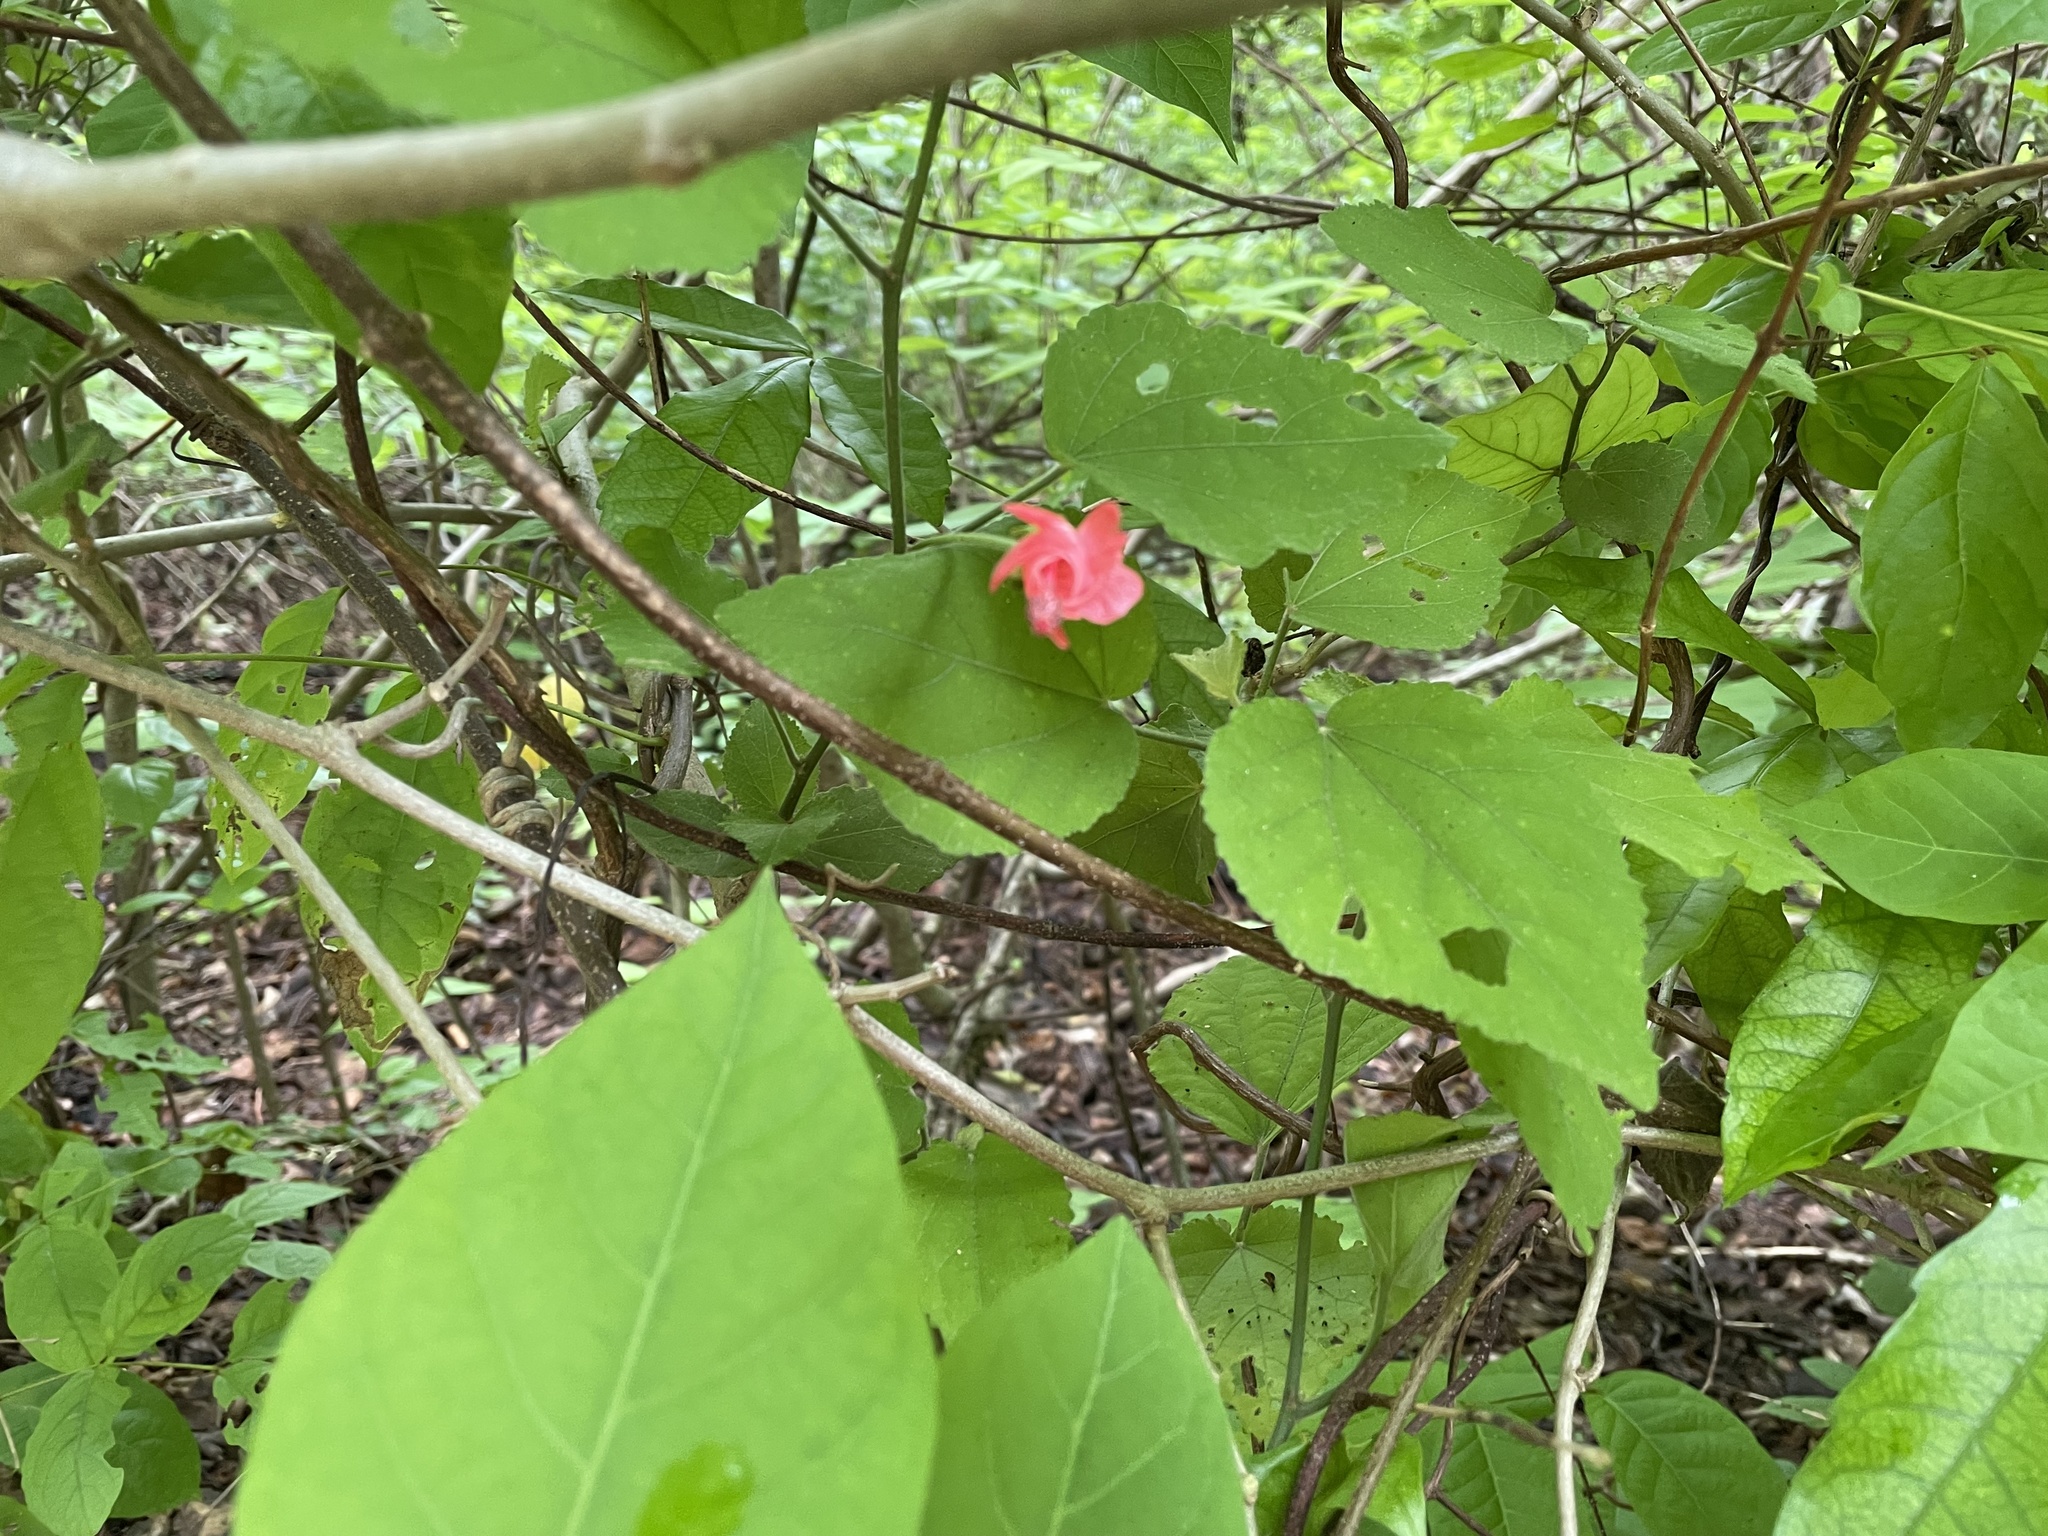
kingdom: Plantae
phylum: Tracheophyta
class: Magnoliopsida
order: Malvales
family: Malvaceae
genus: Malvaviscus
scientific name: Malvaviscus arboreus
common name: Wax mallow
